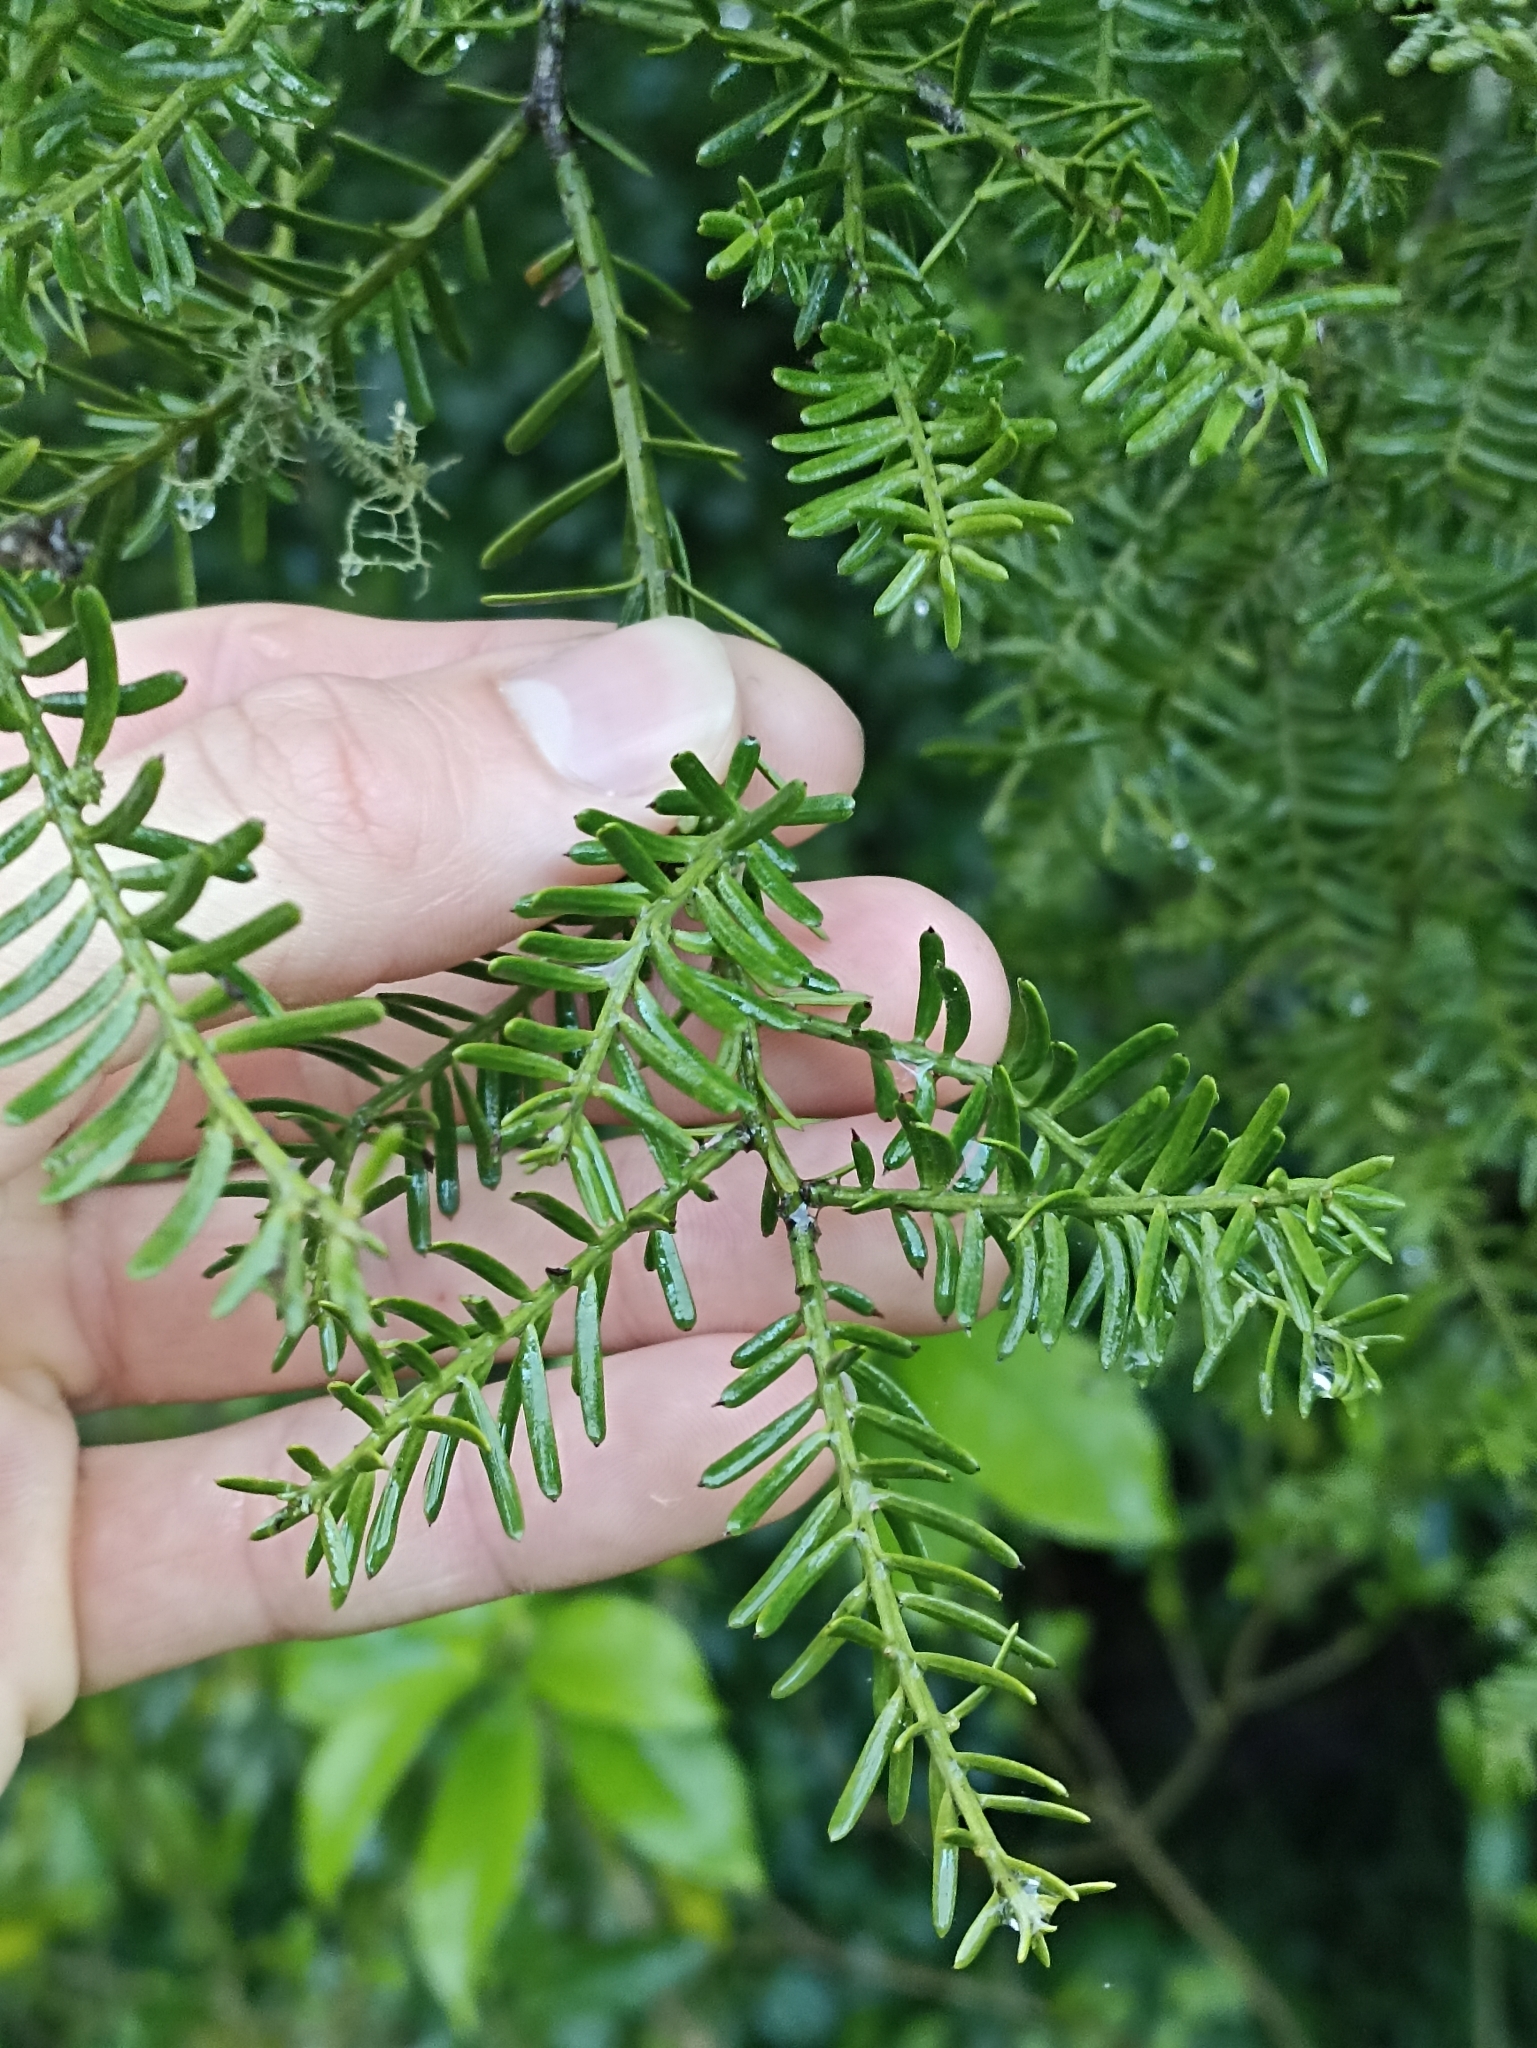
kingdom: Plantae
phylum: Tracheophyta
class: Pinopsida
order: Pinales
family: Podocarpaceae
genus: Prumnopitys
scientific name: Prumnopitys taxifolia
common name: Matai
